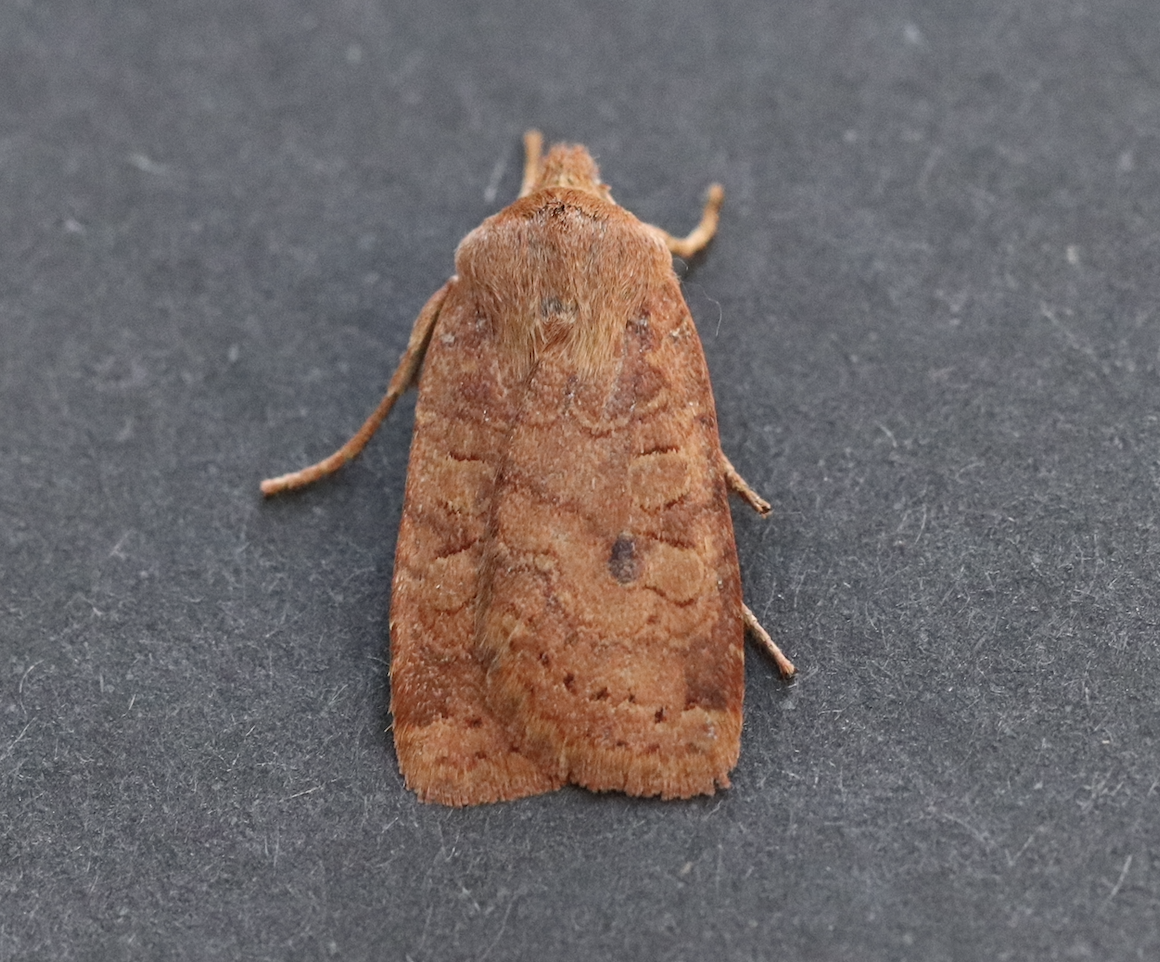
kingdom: Animalia
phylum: Arthropoda
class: Insecta
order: Lepidoptera
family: Noctuidae
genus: Conistra
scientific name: Conistra vaccinii
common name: Chestnut
